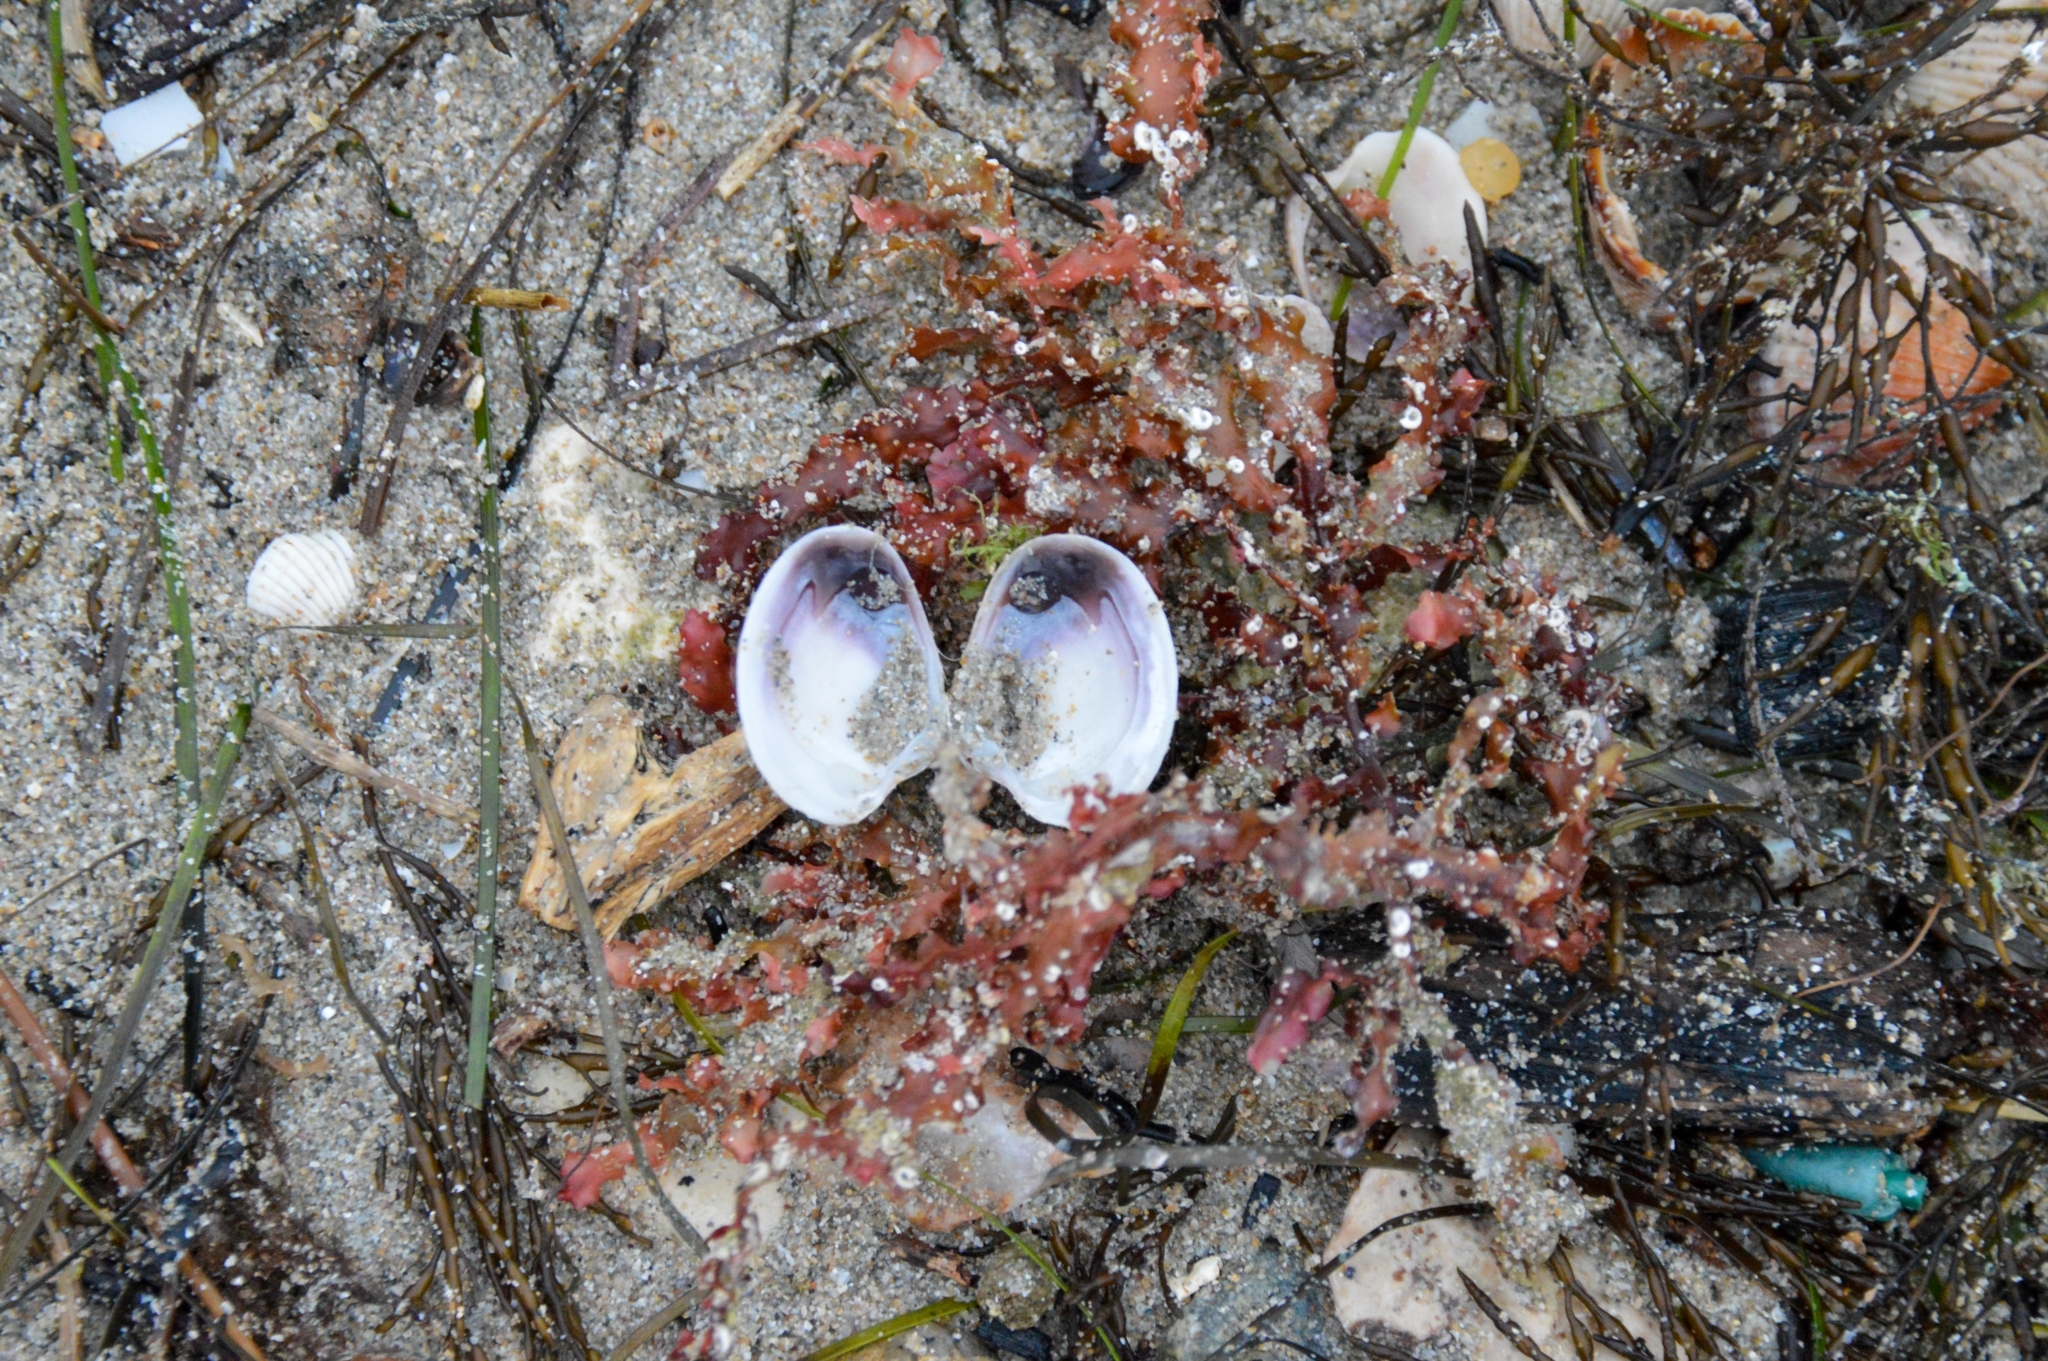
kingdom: Animalia
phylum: Mollusca
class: Bivalvia
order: Venerida
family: Veneridae
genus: Chamelea
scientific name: Chamelea gallina
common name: Chicken venus
